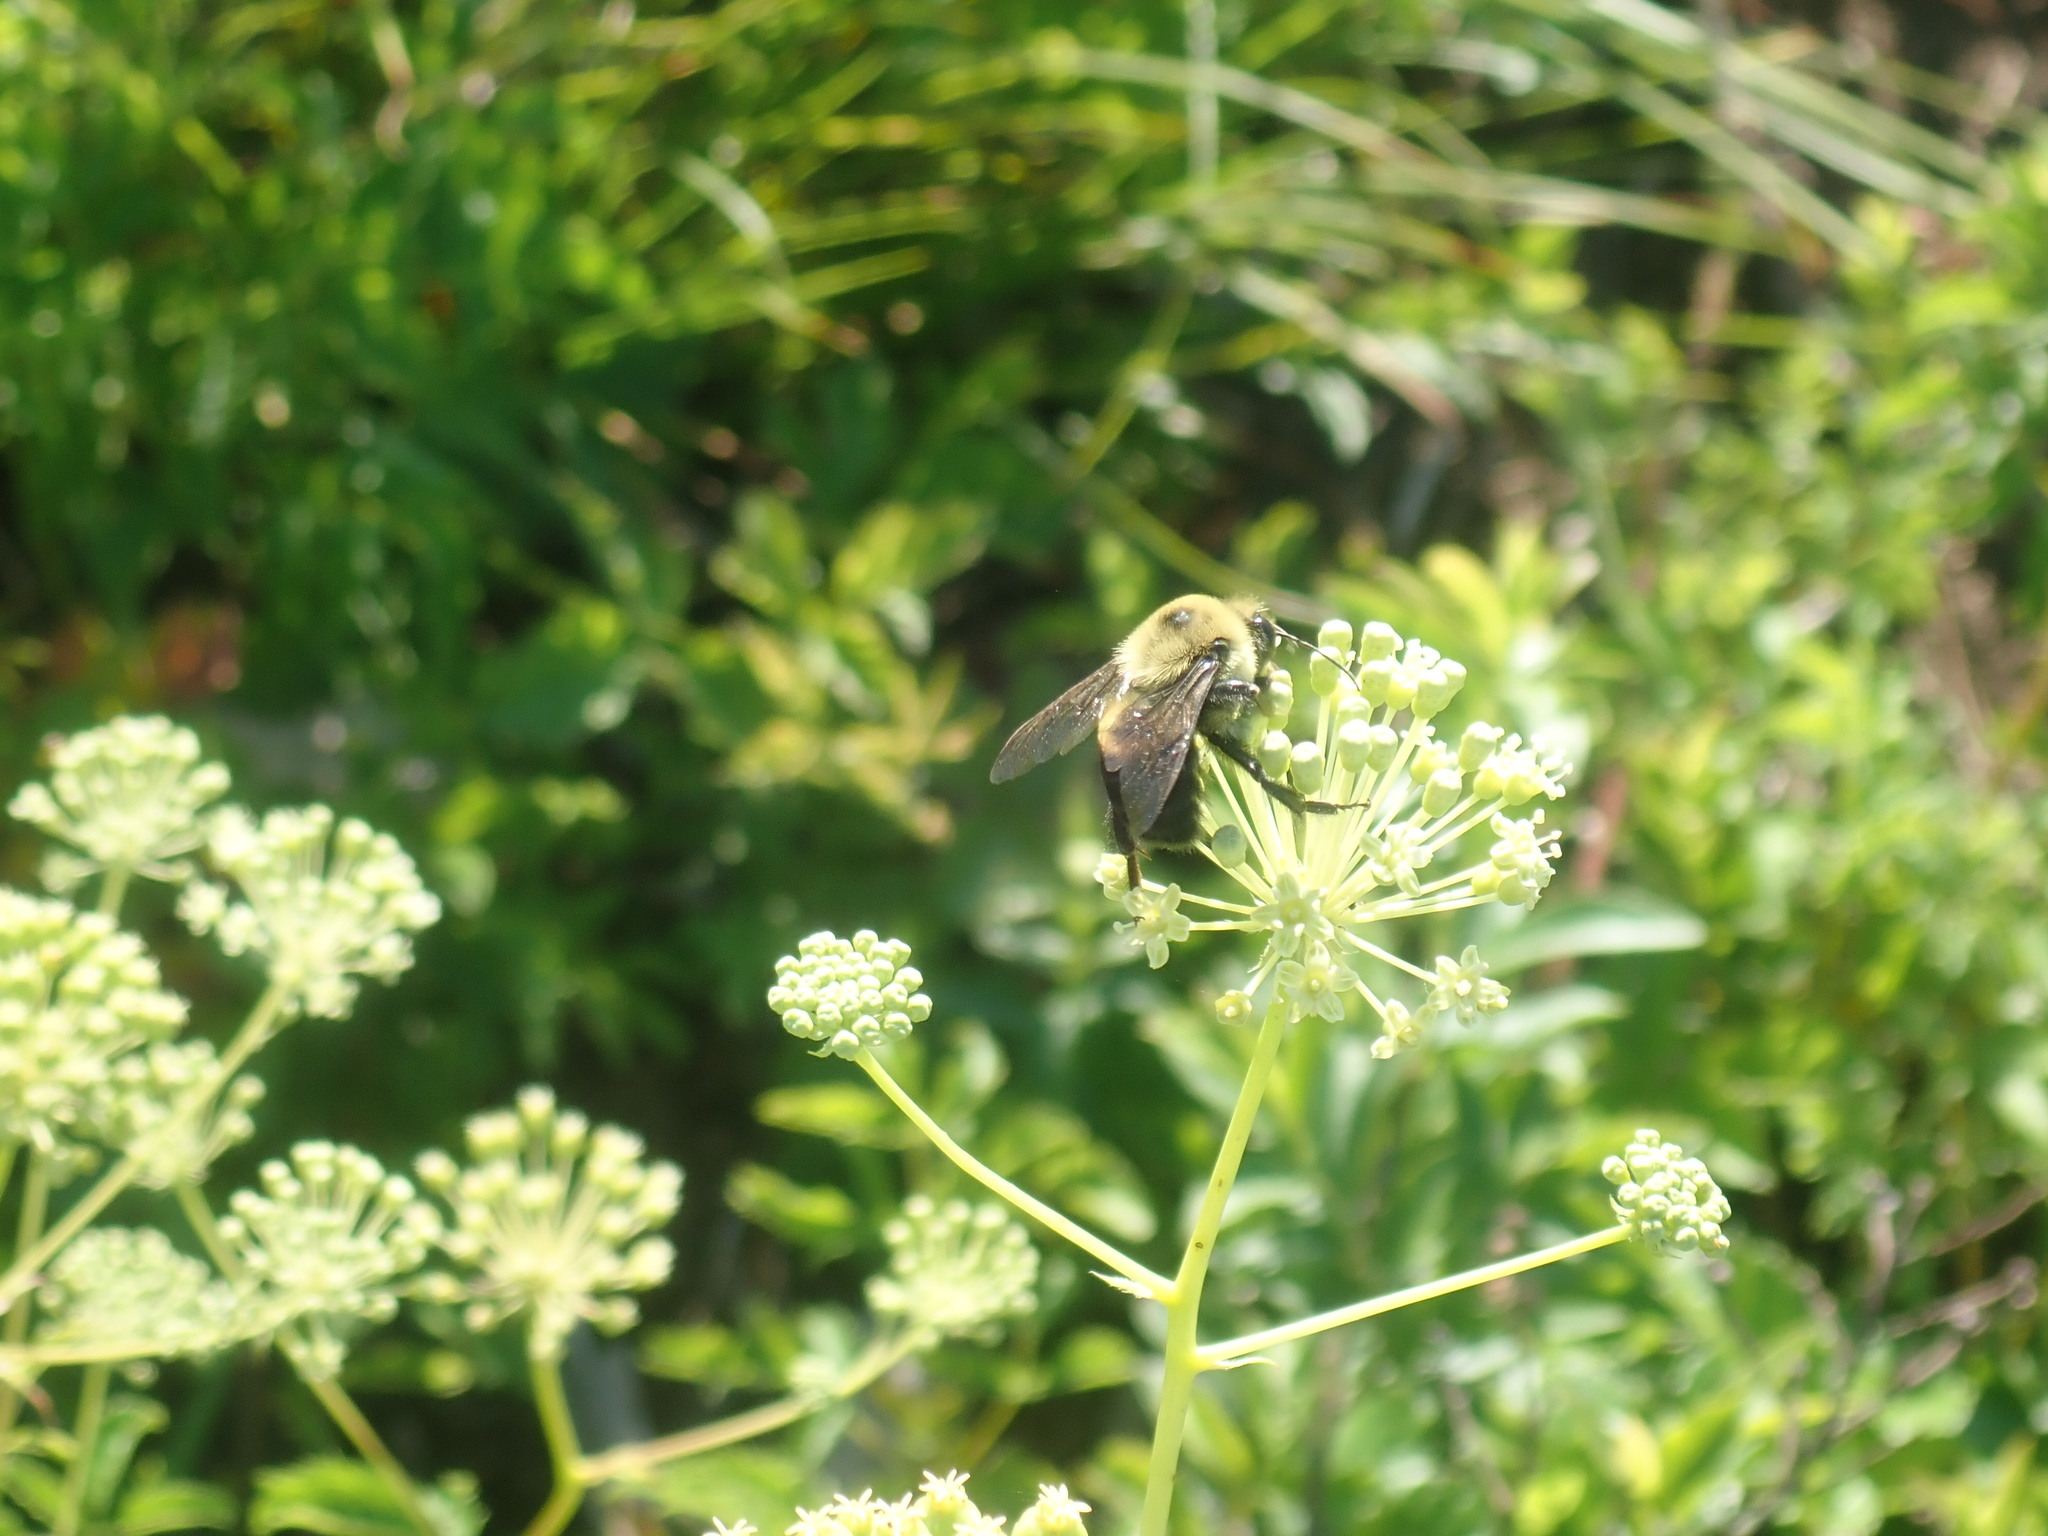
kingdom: Animalia
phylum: Arthropoda
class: Insecta
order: Hymenoptera
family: Apidae
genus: Bombus
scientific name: Bombus griseocollis
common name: Brown-belted bumble bee
